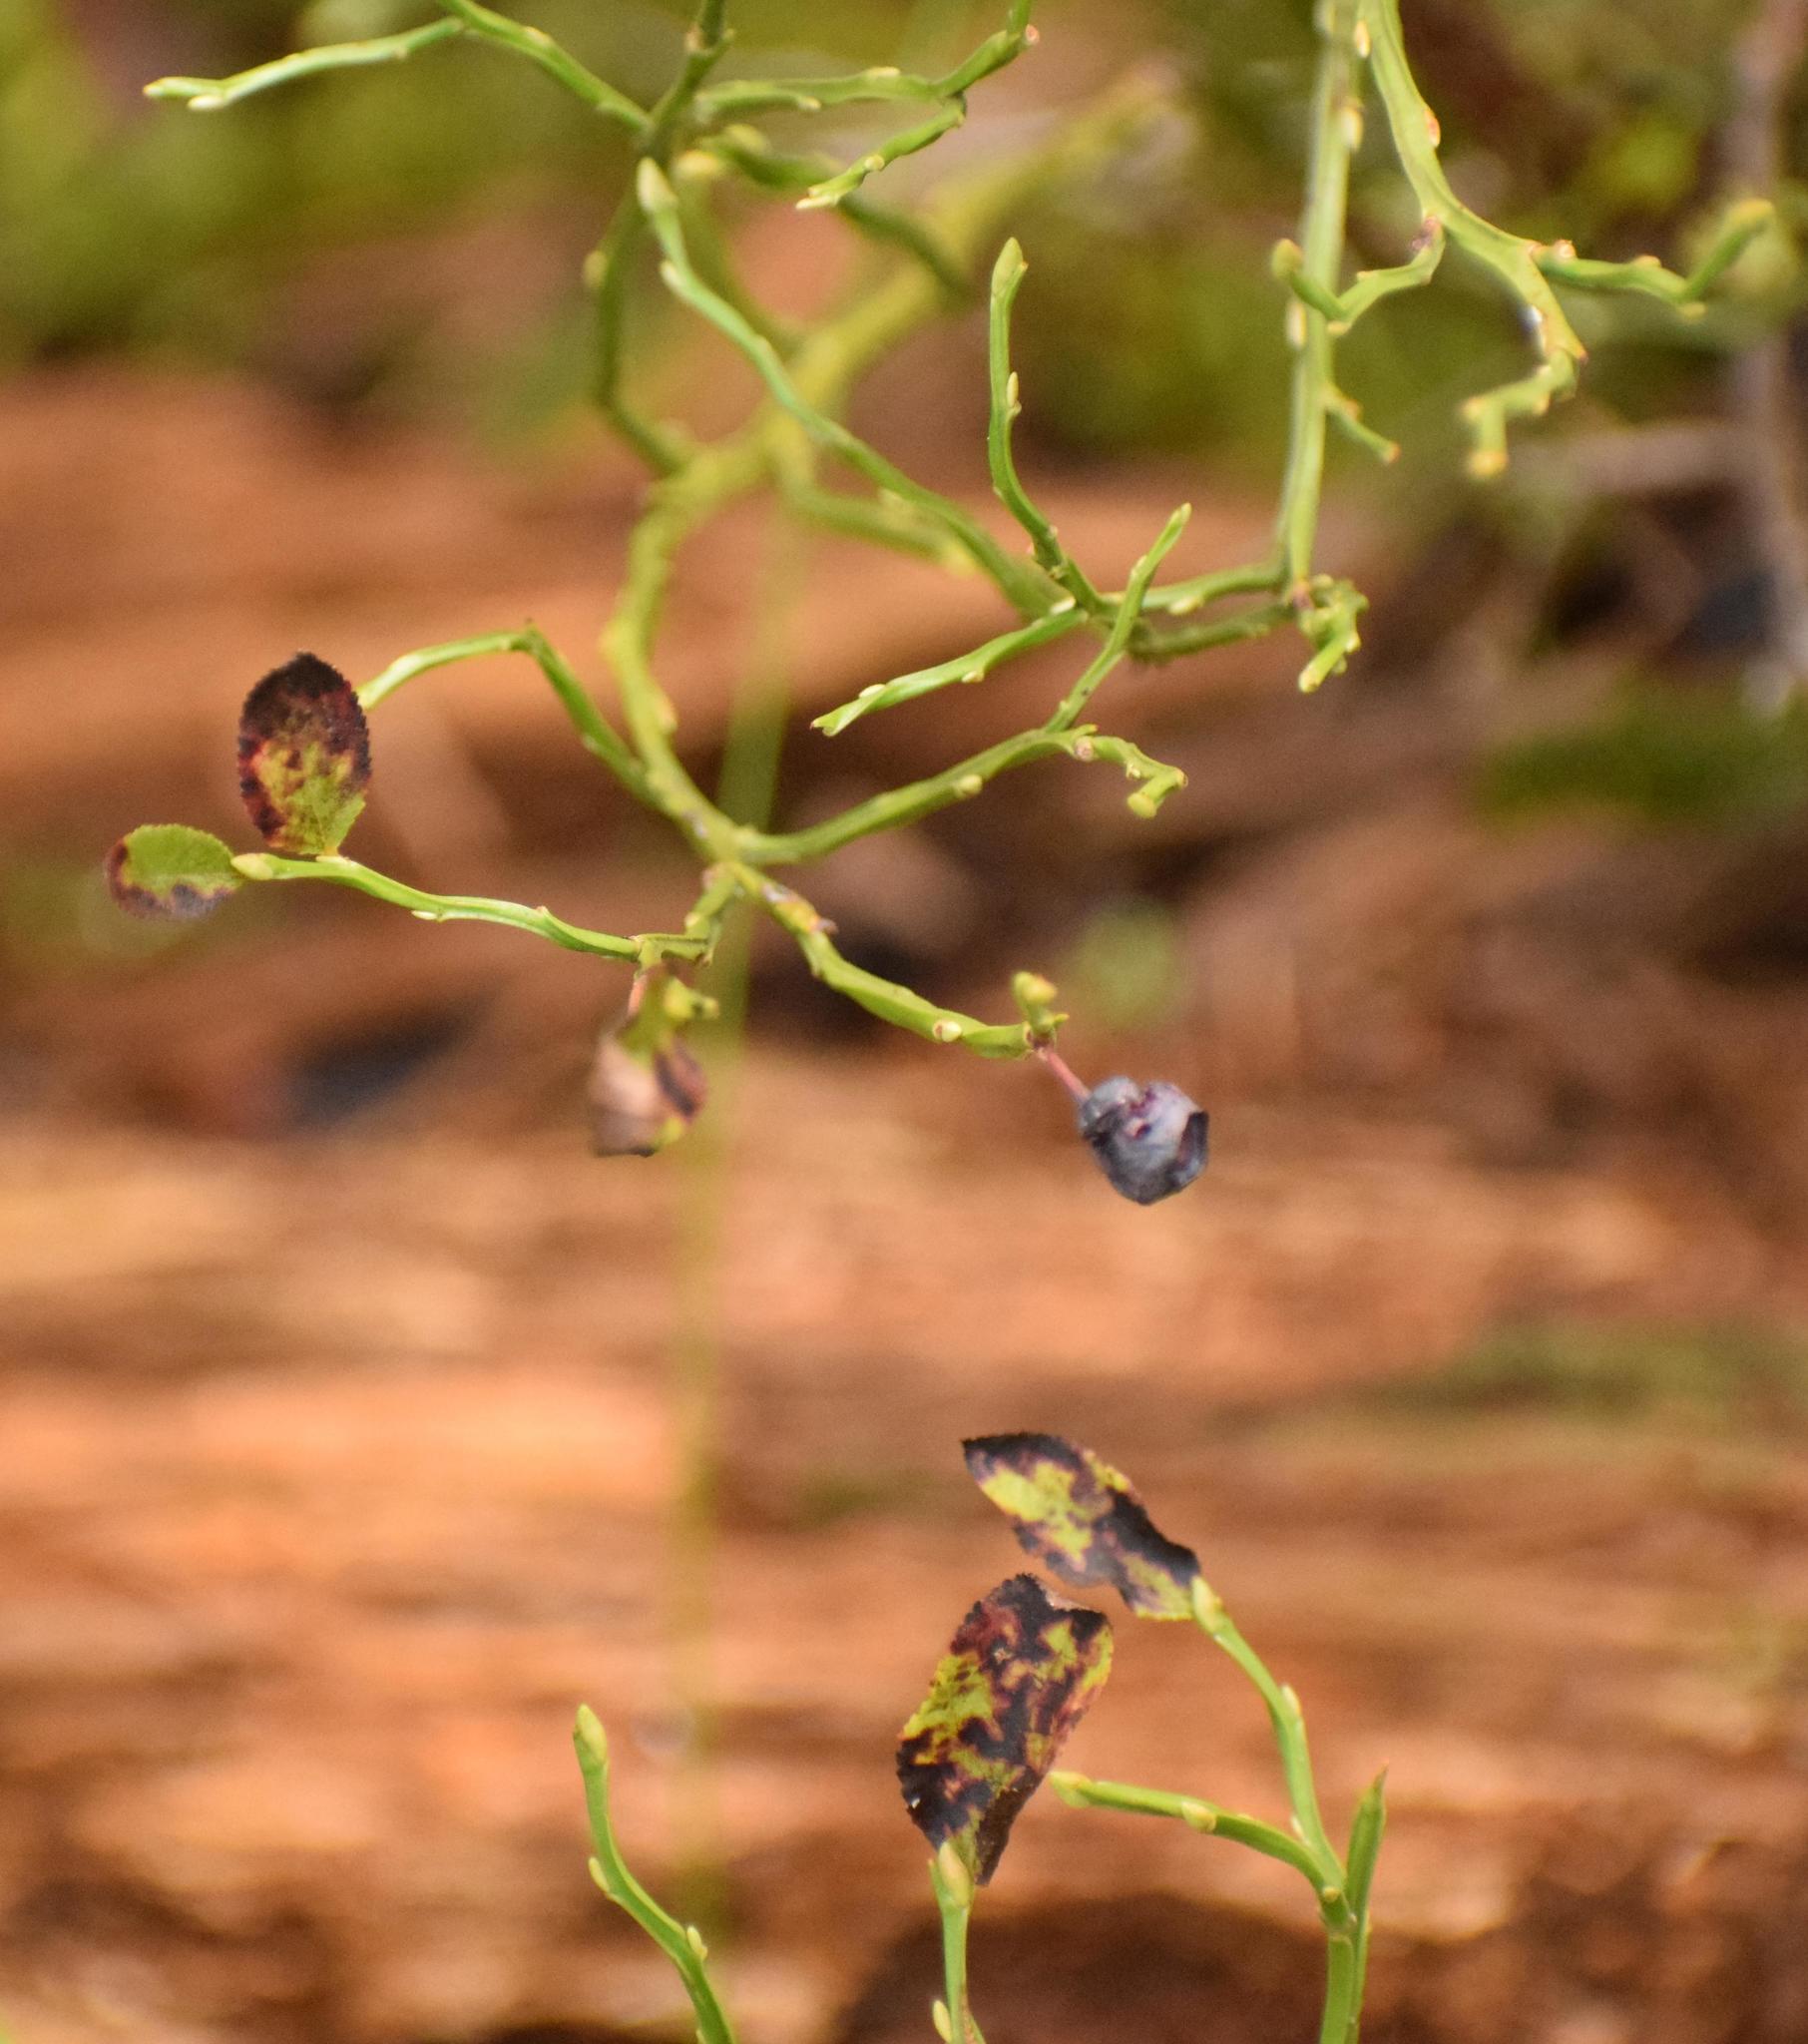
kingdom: Plantae
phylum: Tracheophyta
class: Magnoliopsida
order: Ericales
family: Ericaceae
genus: Vaccinium
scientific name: Vaccinium myrtillus
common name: Bilberry
